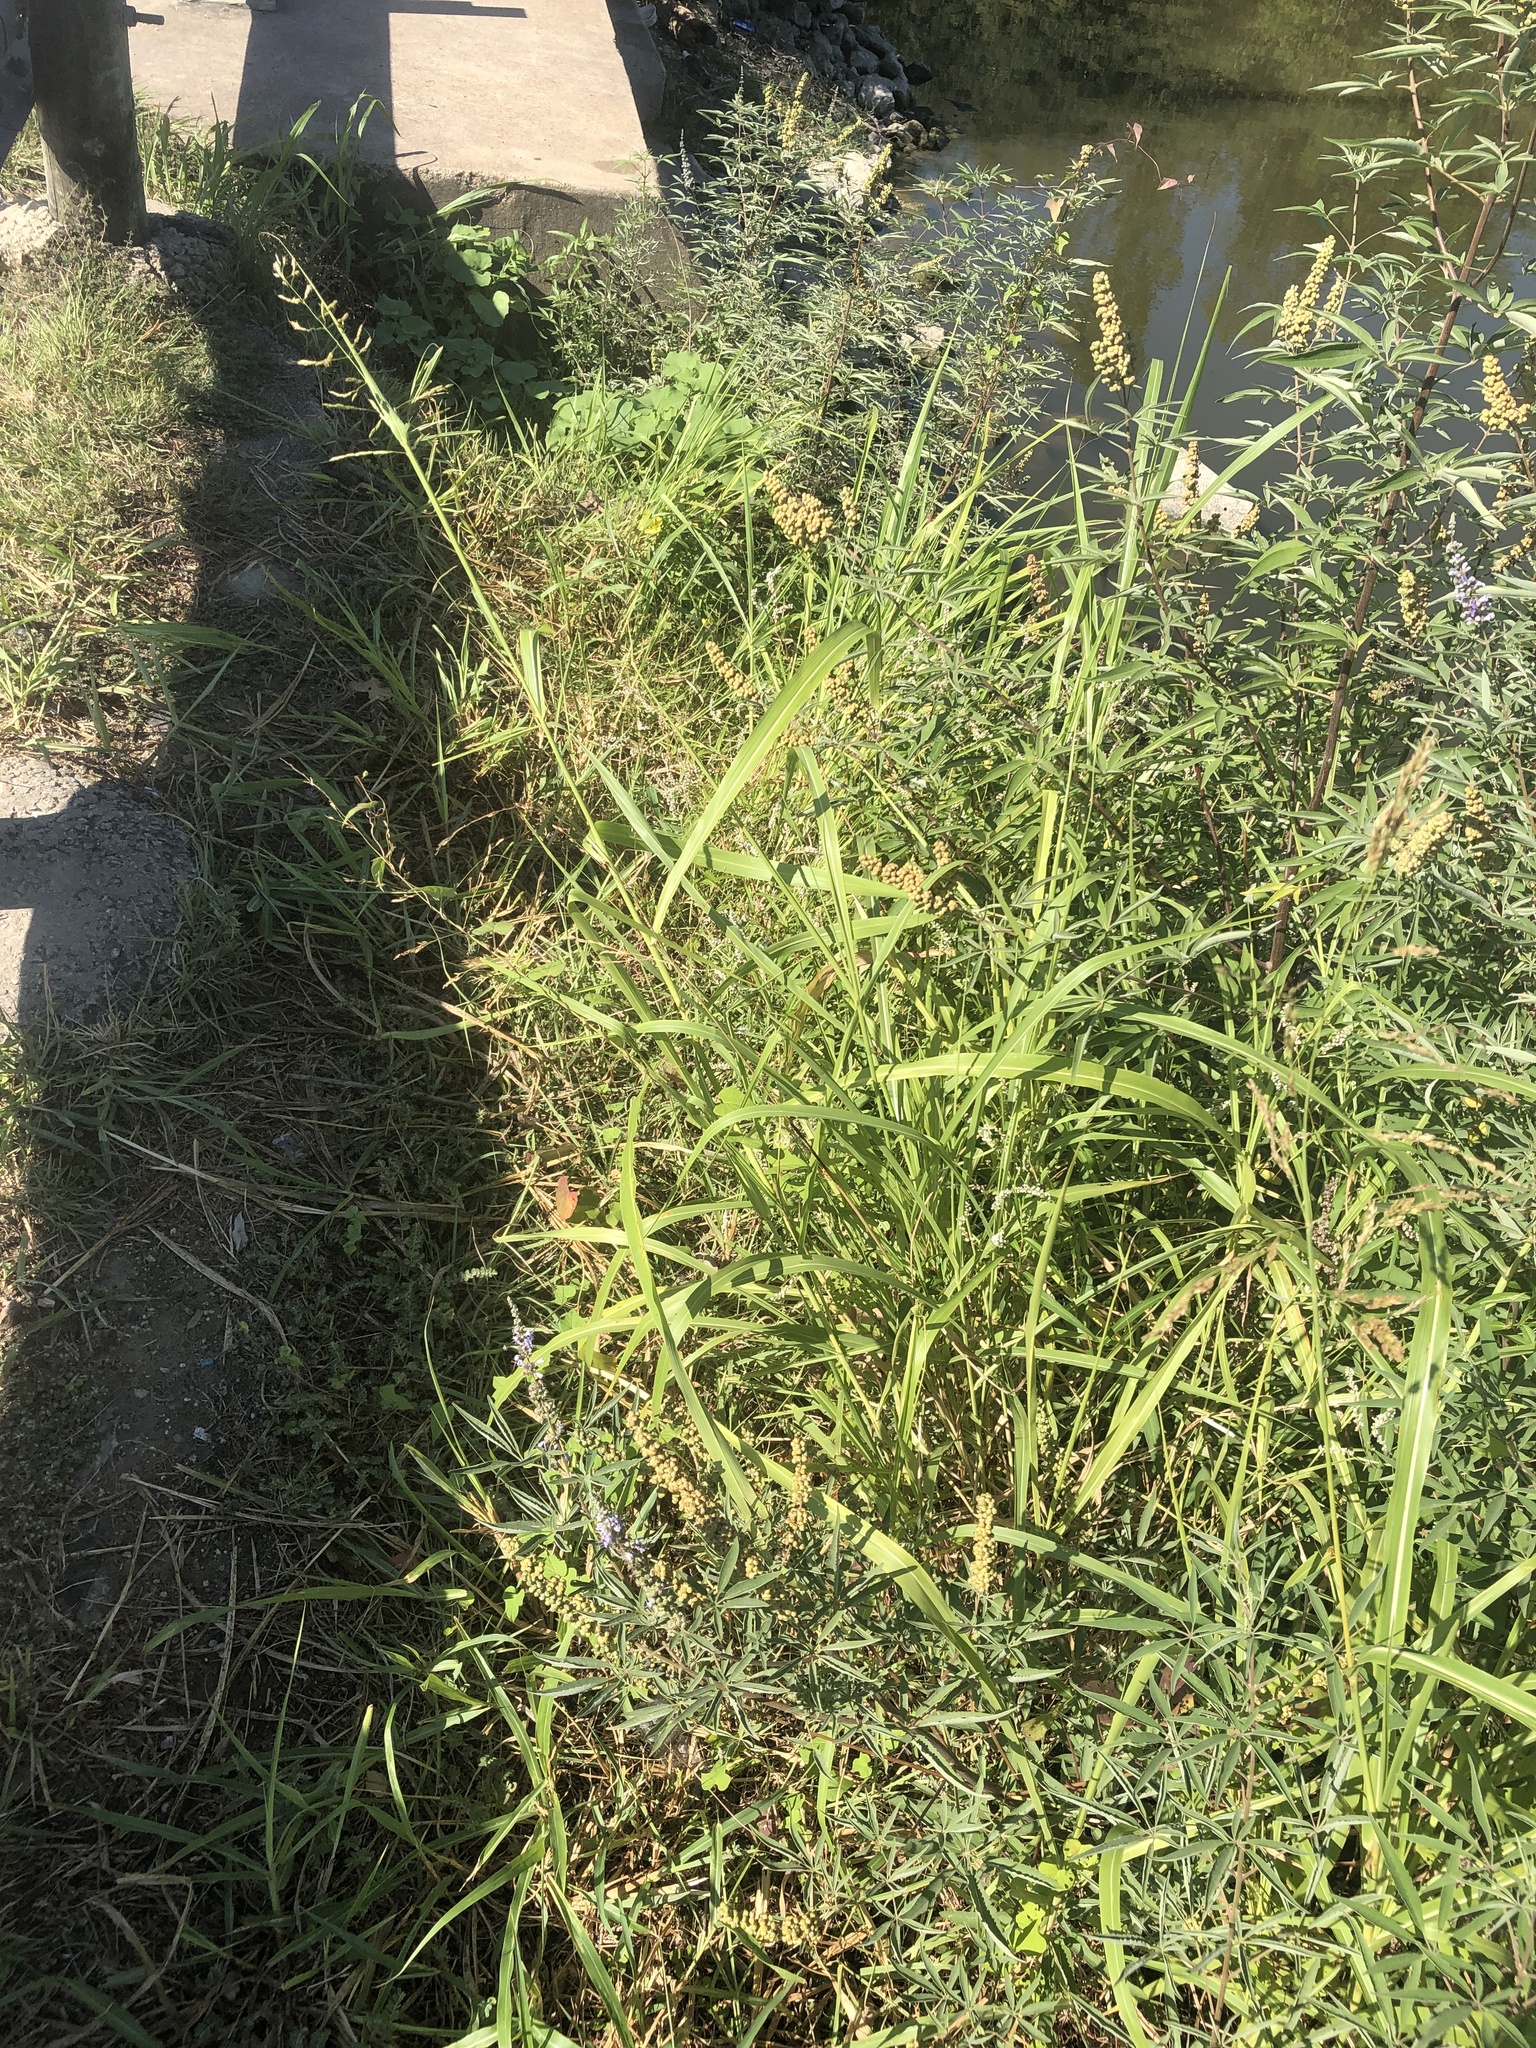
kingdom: Plantae
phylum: Tracheophyta
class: Liliopsida
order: Poales
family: Poaceae
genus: Sorghum
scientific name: Sorghum halepense
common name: Johnson-grass
